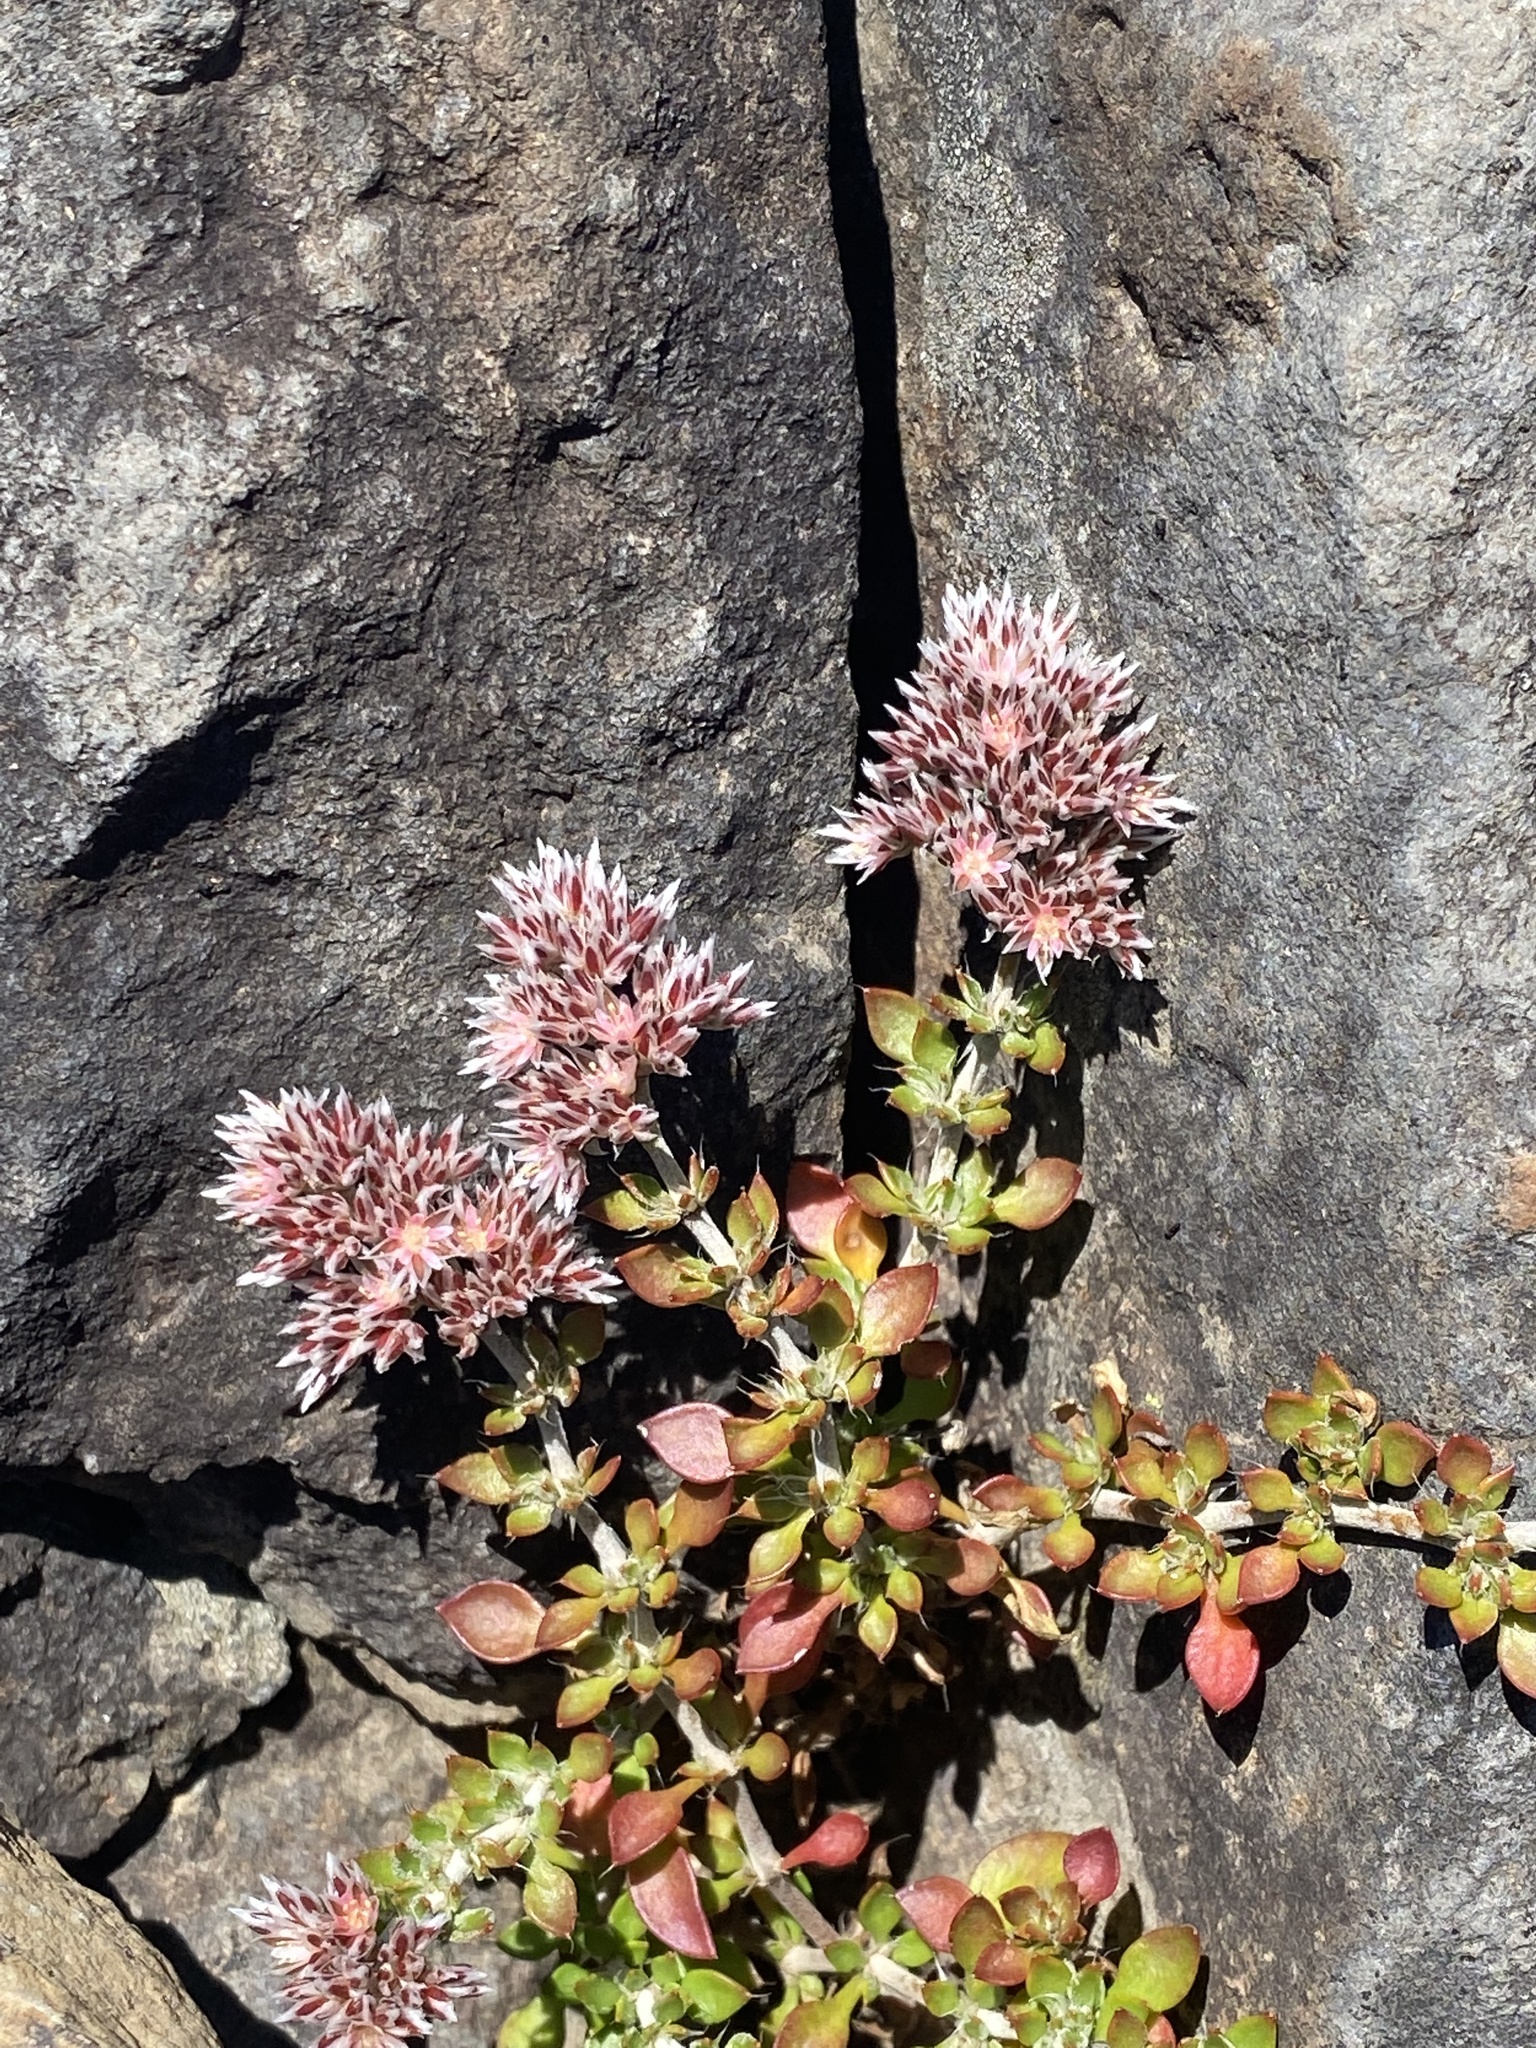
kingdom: Plantae
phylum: Tracheophyta
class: Magnoliopsida
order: Caryophyllales
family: Caryophyllaceae
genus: Polycarpaea
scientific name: Polycarpaea divaricata
